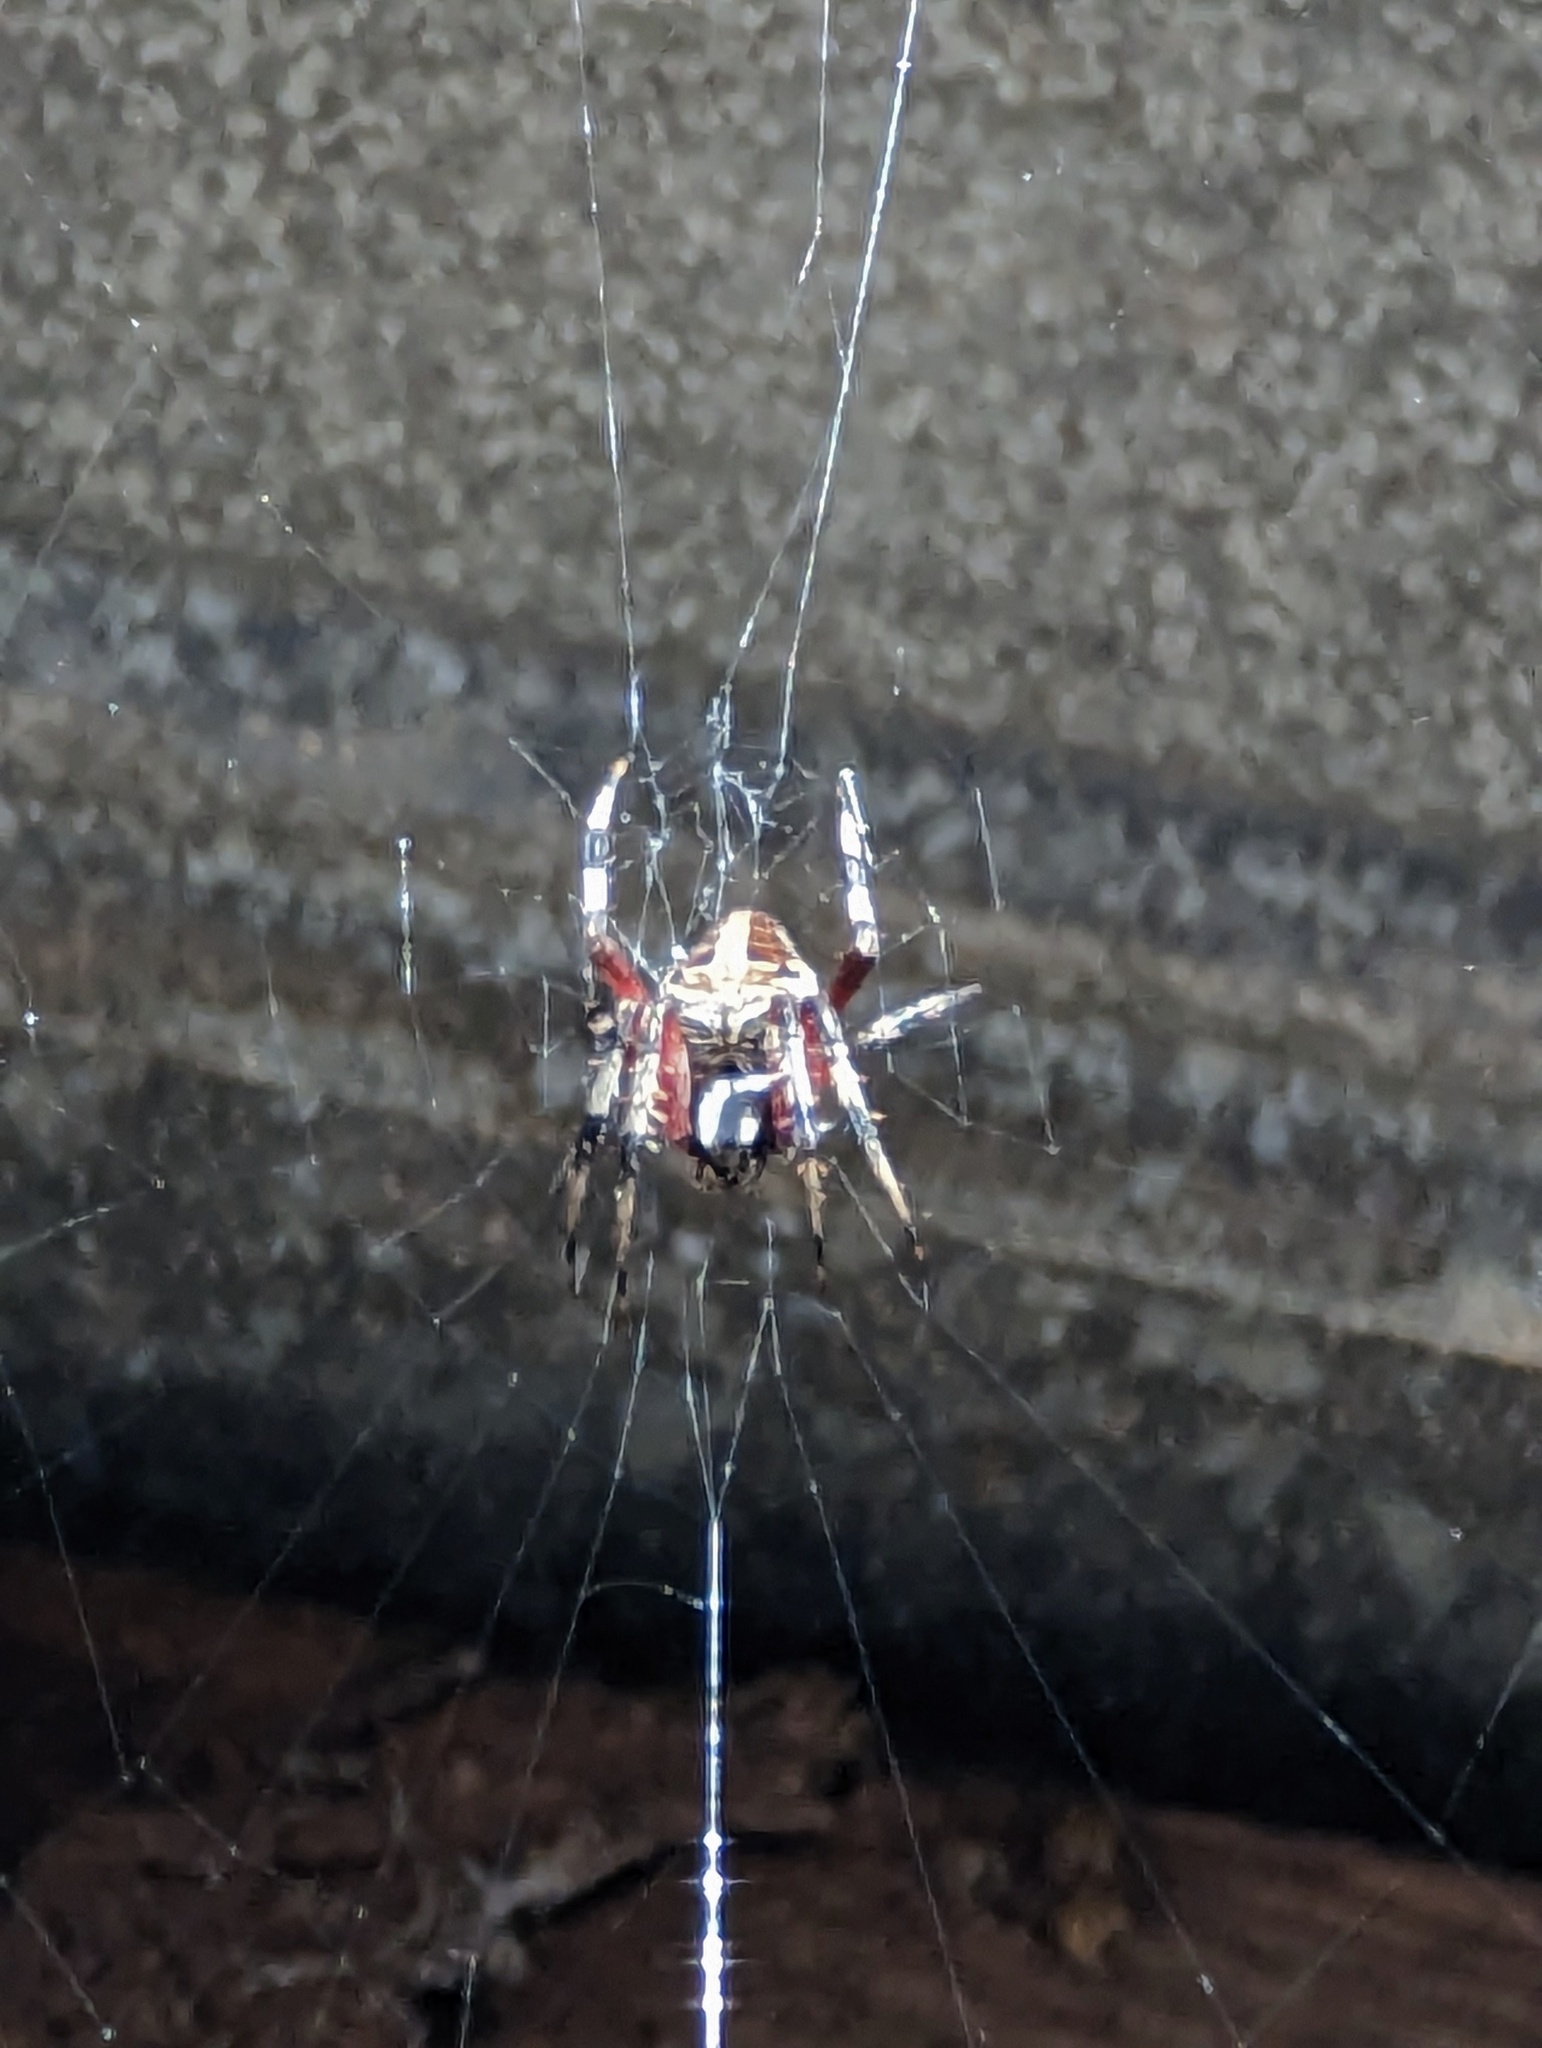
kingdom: Animalia
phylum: Arthropoda
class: Arachnida
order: Araneae
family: Araneidae
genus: Neoscona
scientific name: Neoscona domiciliorum
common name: Red-femured spotted orbweaver
